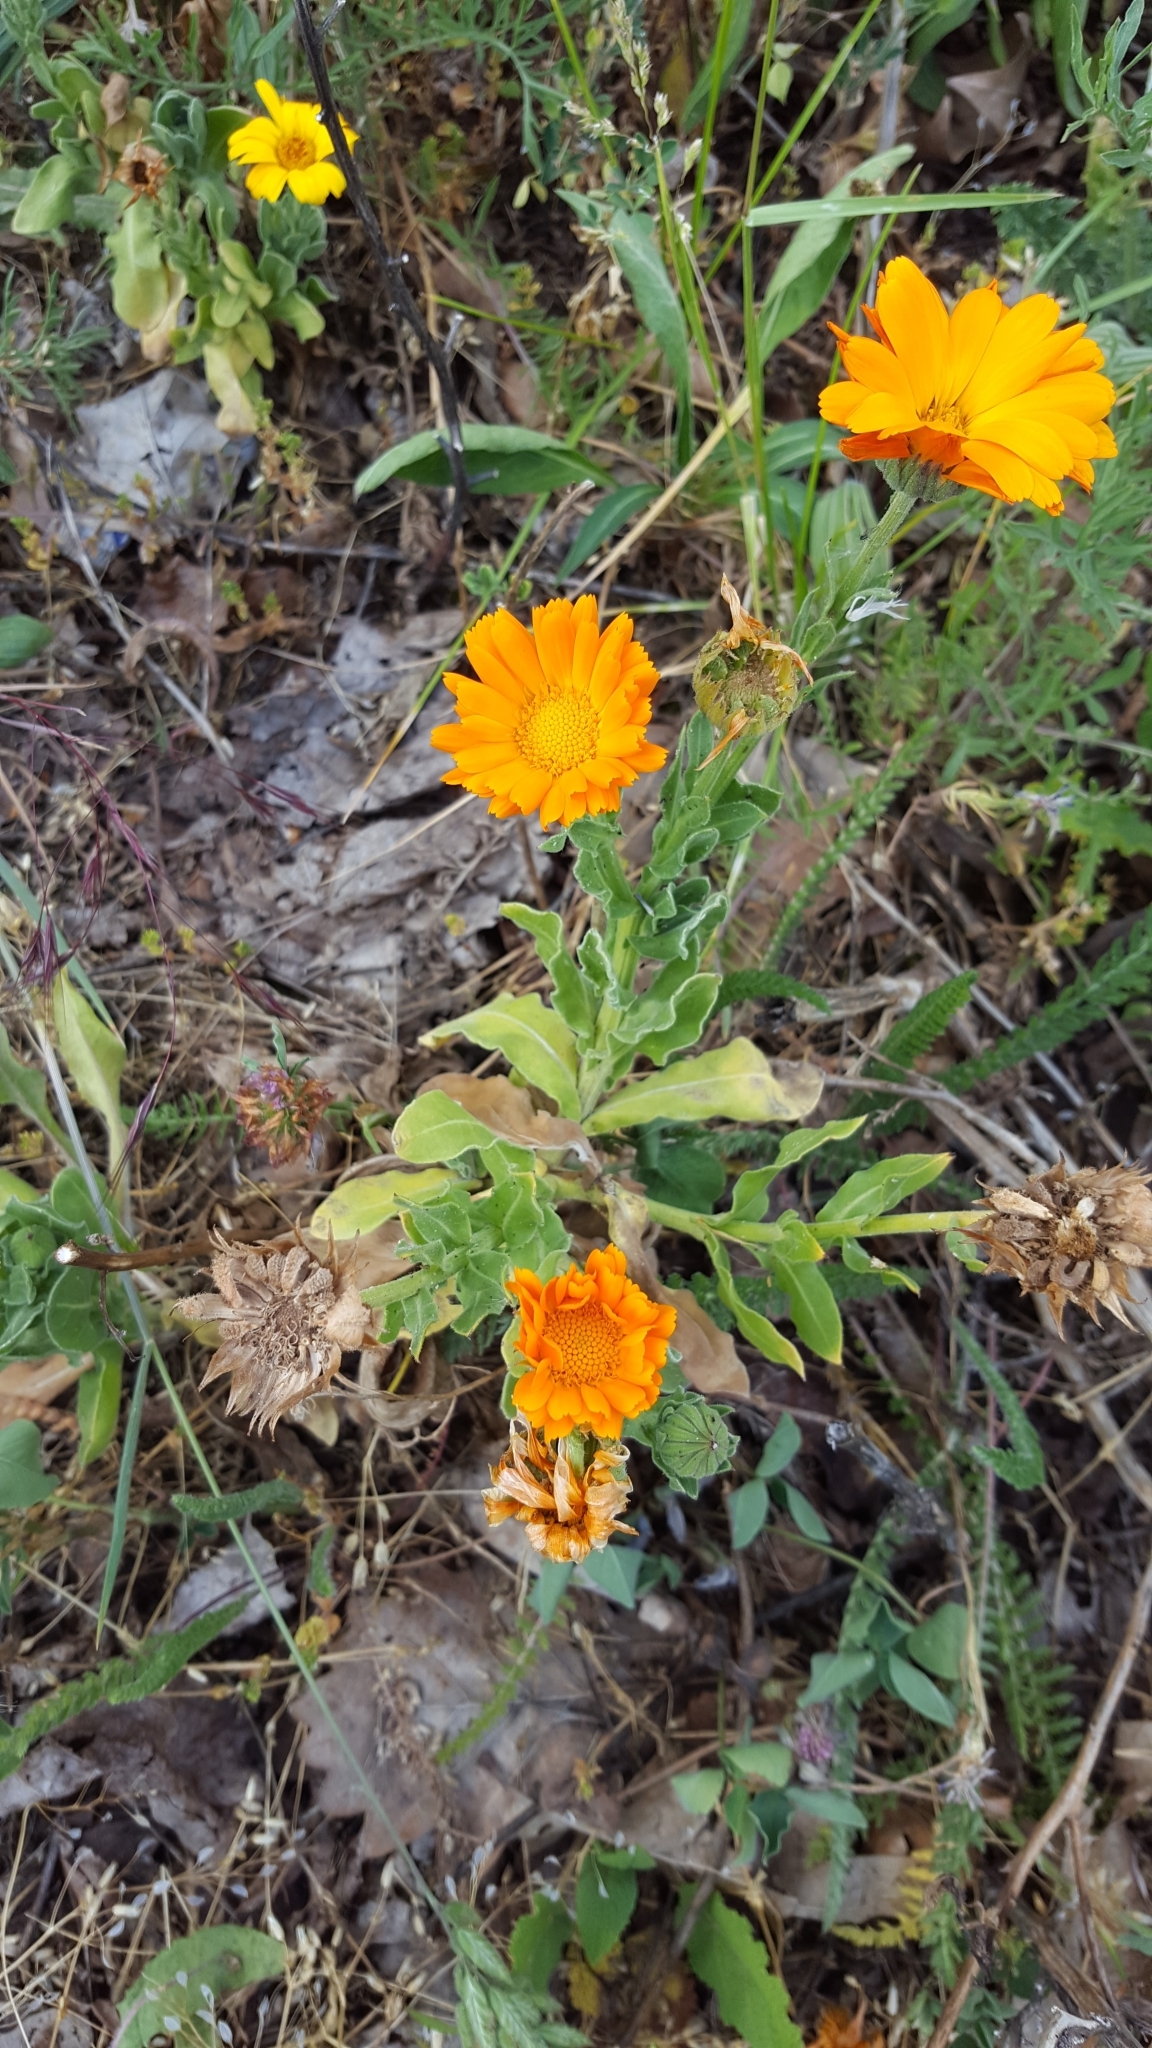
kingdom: Plantae
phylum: Tracheophyta
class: Magnoliopsida
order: Asterales
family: Asteraceae
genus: Calendula
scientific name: Calendula officinalis
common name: Pot marigold
